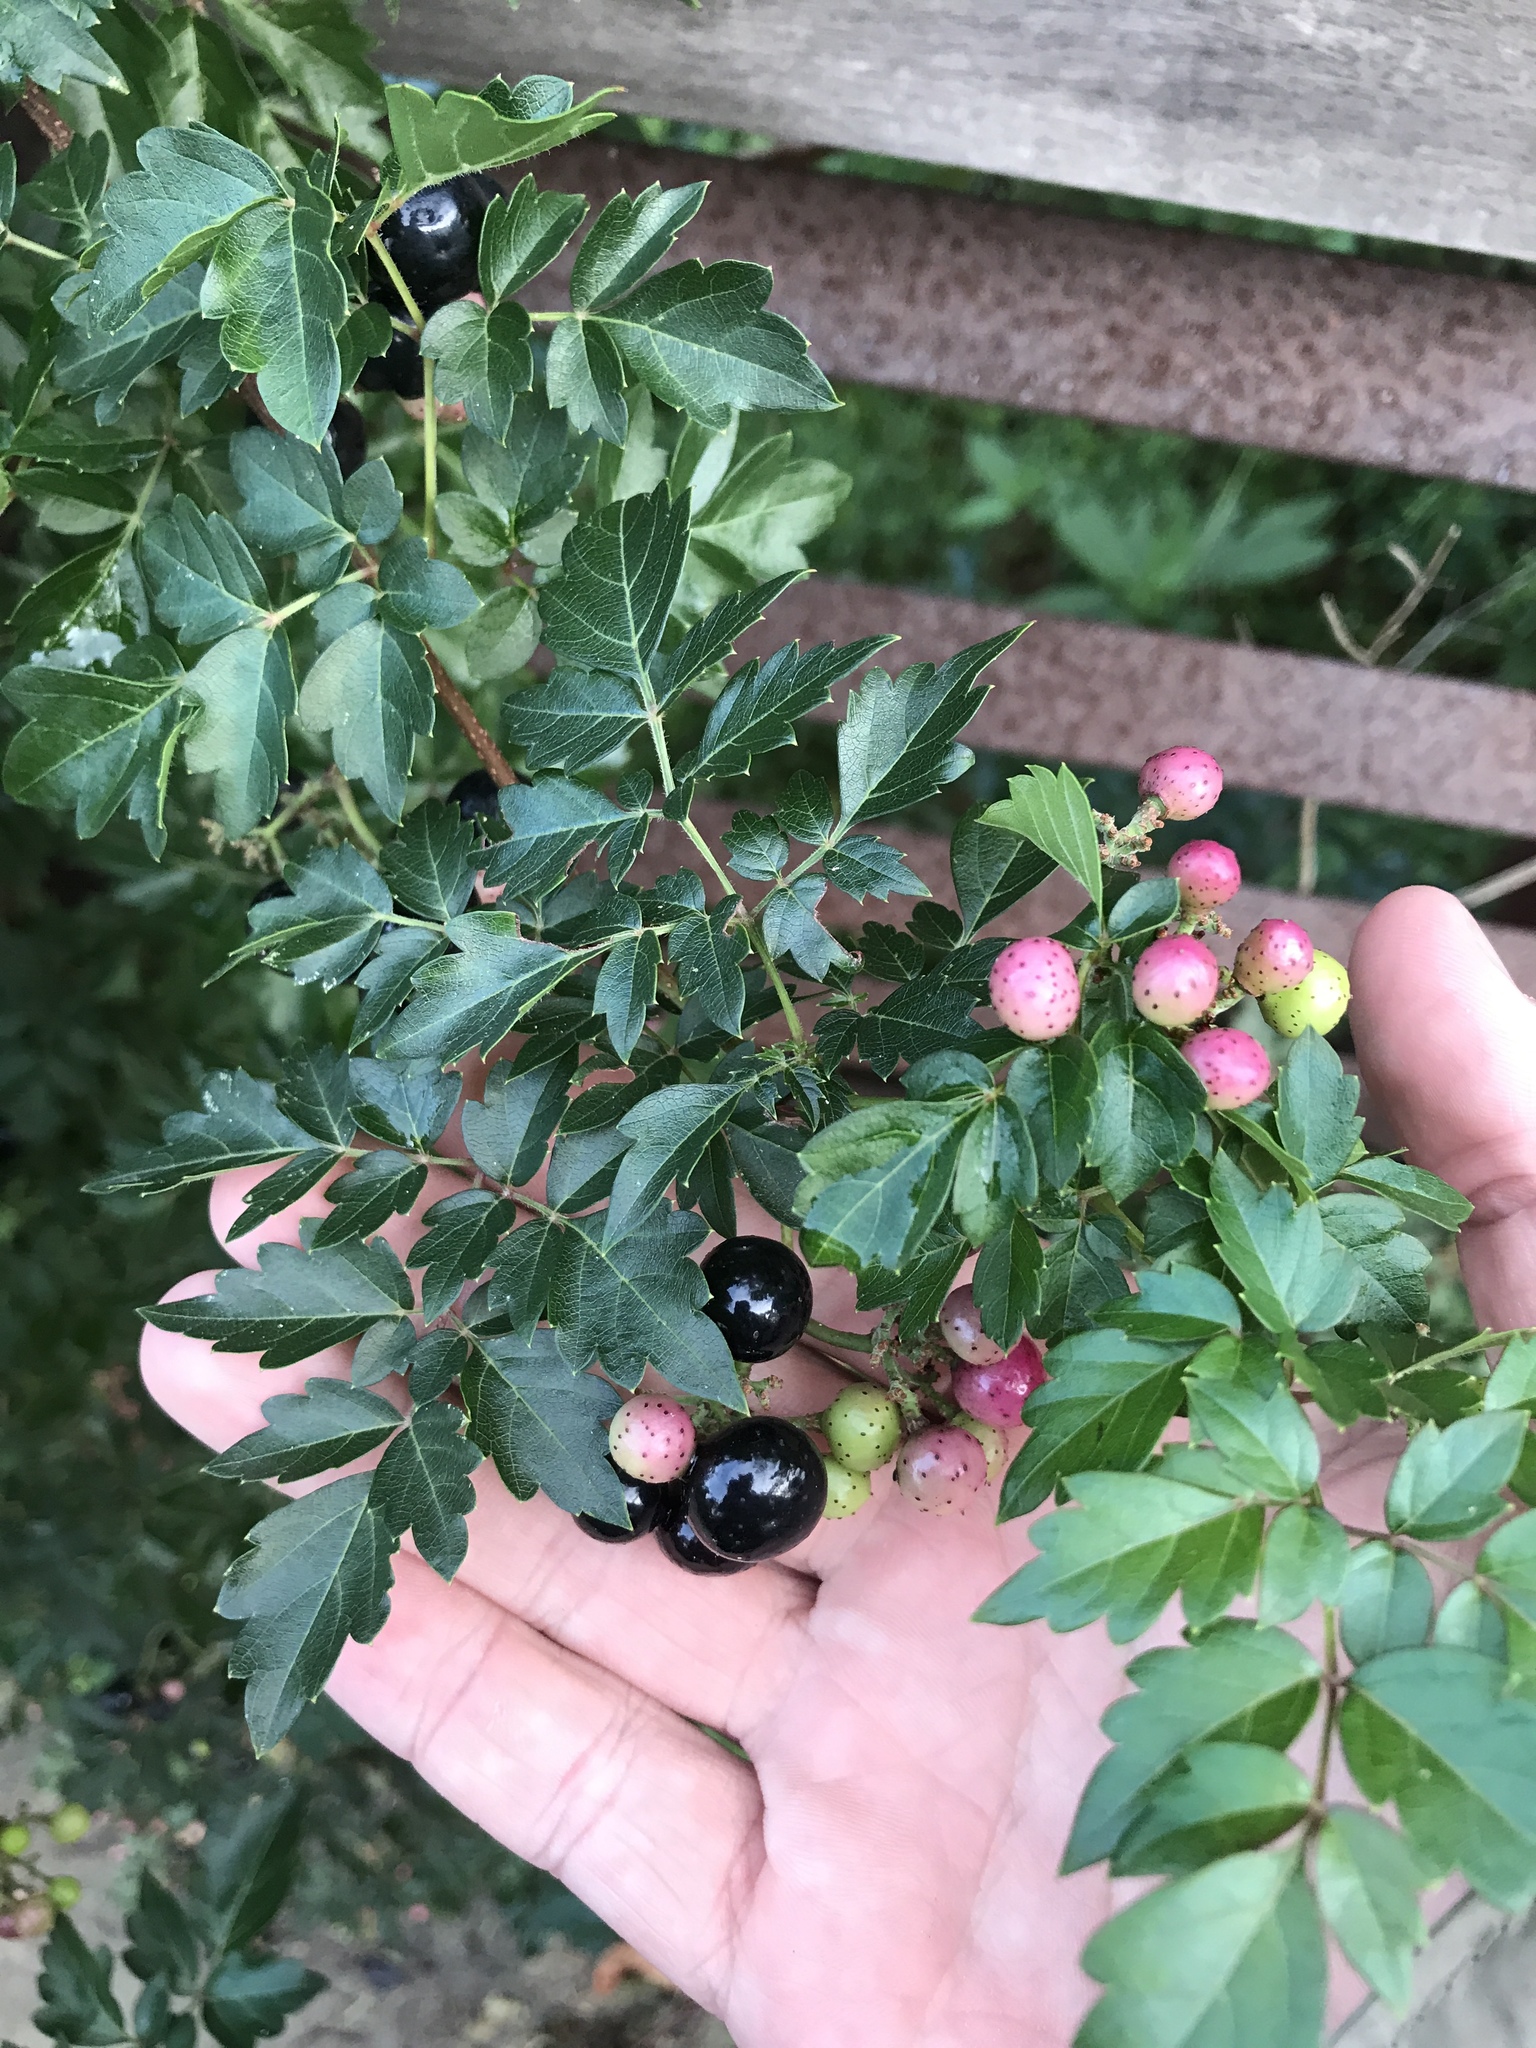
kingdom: Plantae
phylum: Tracheophyta
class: Magnoliopsida
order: Vitales
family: Vitaceae
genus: Nekemias
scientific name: Nekemias arborea
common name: Peppervine
